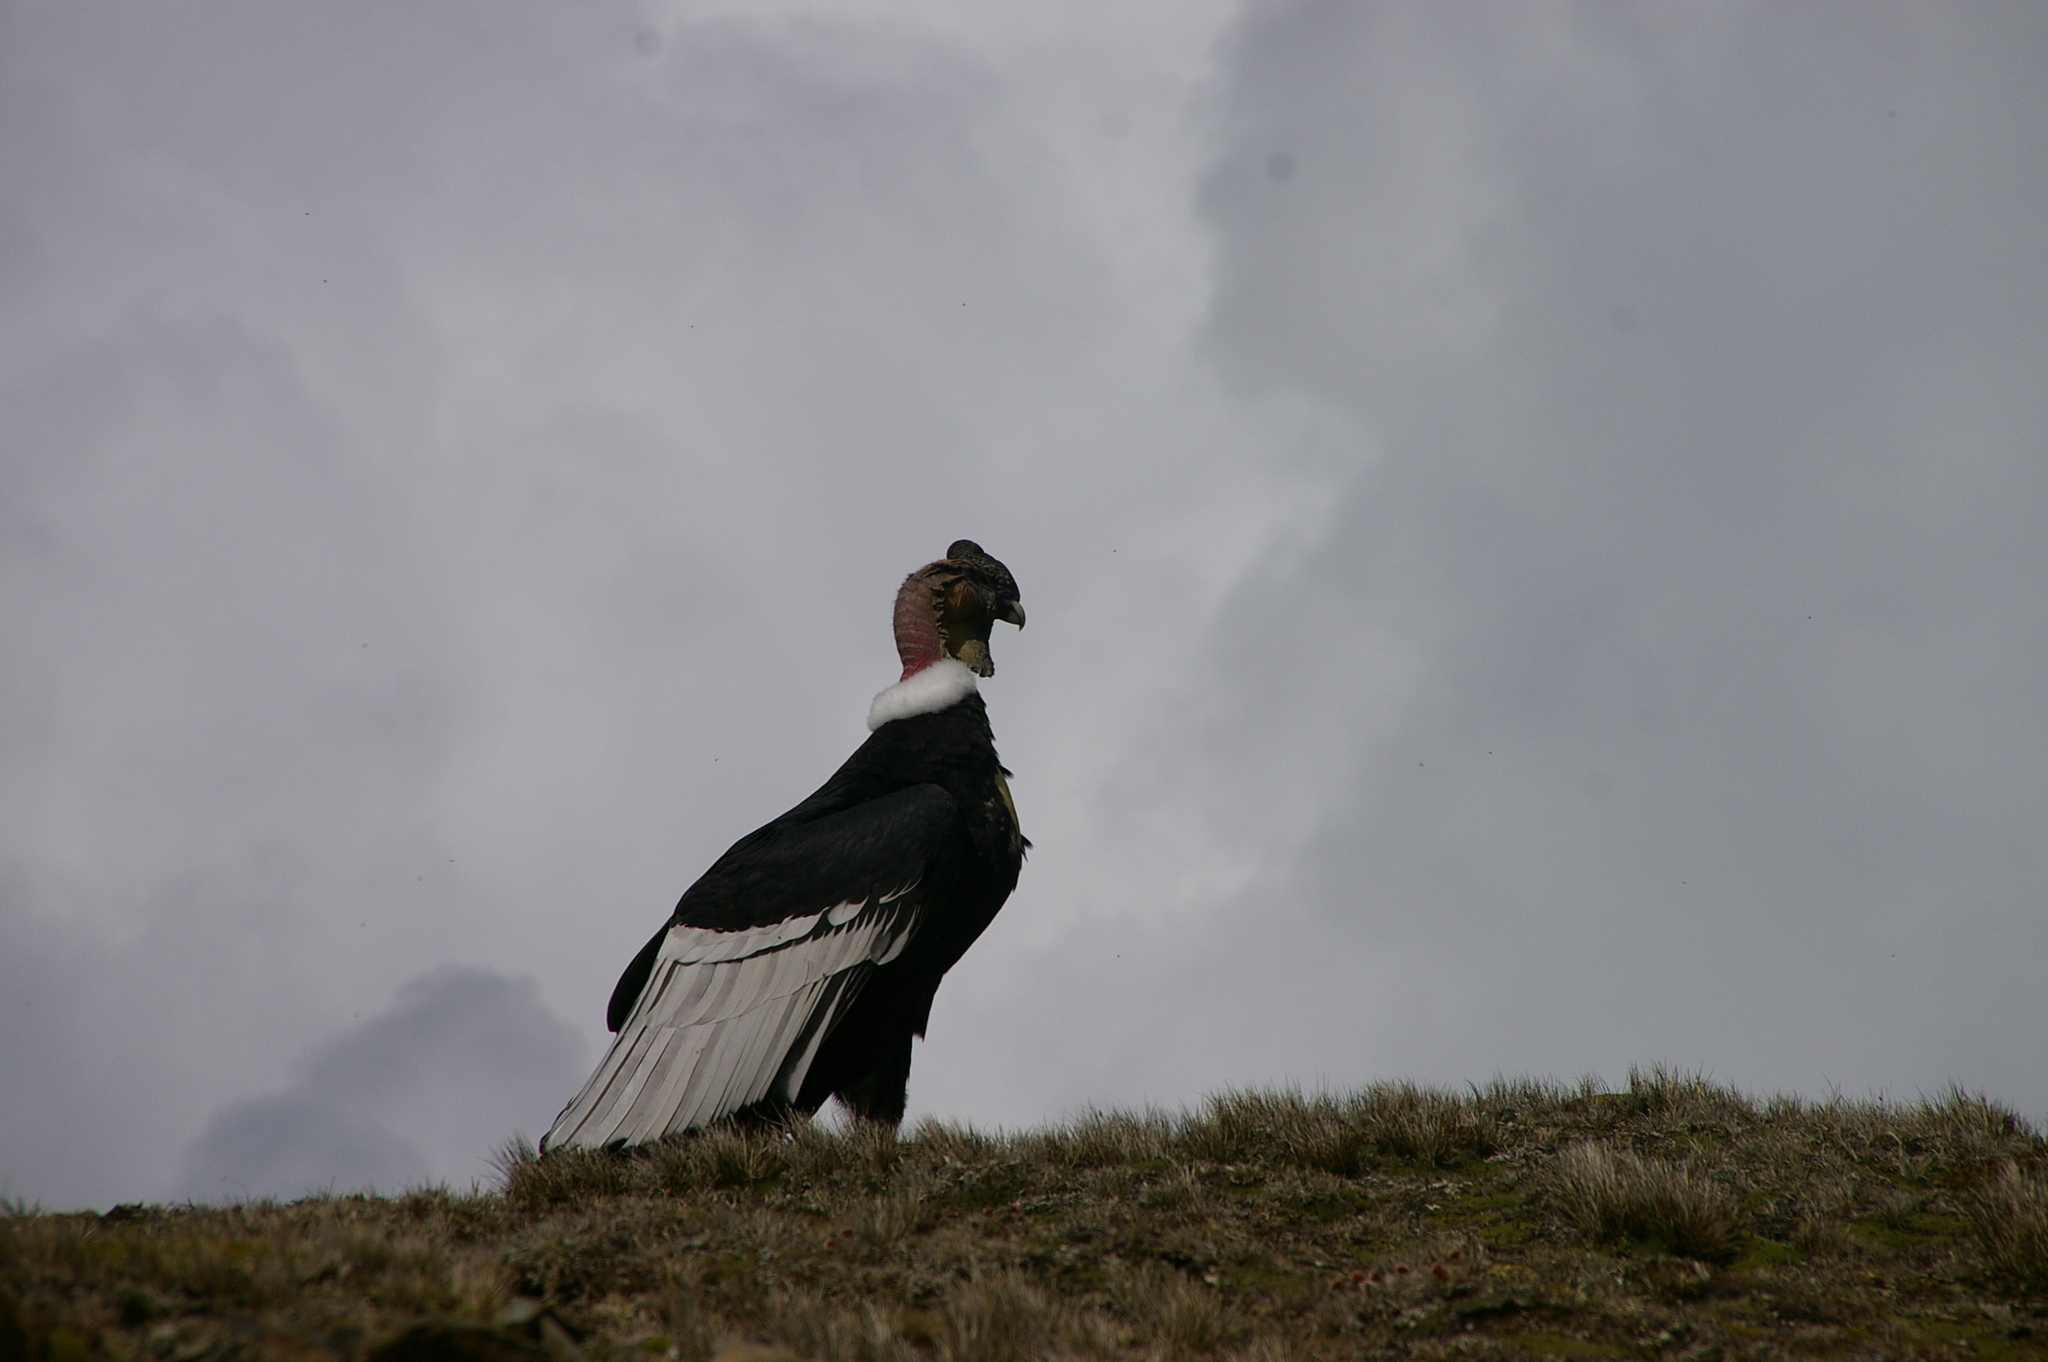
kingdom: Animalia
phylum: Chordata
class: Aves
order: Accipitriformes
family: Cathartidae
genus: Vultur
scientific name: Vultur gryphus
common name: Andean condor
